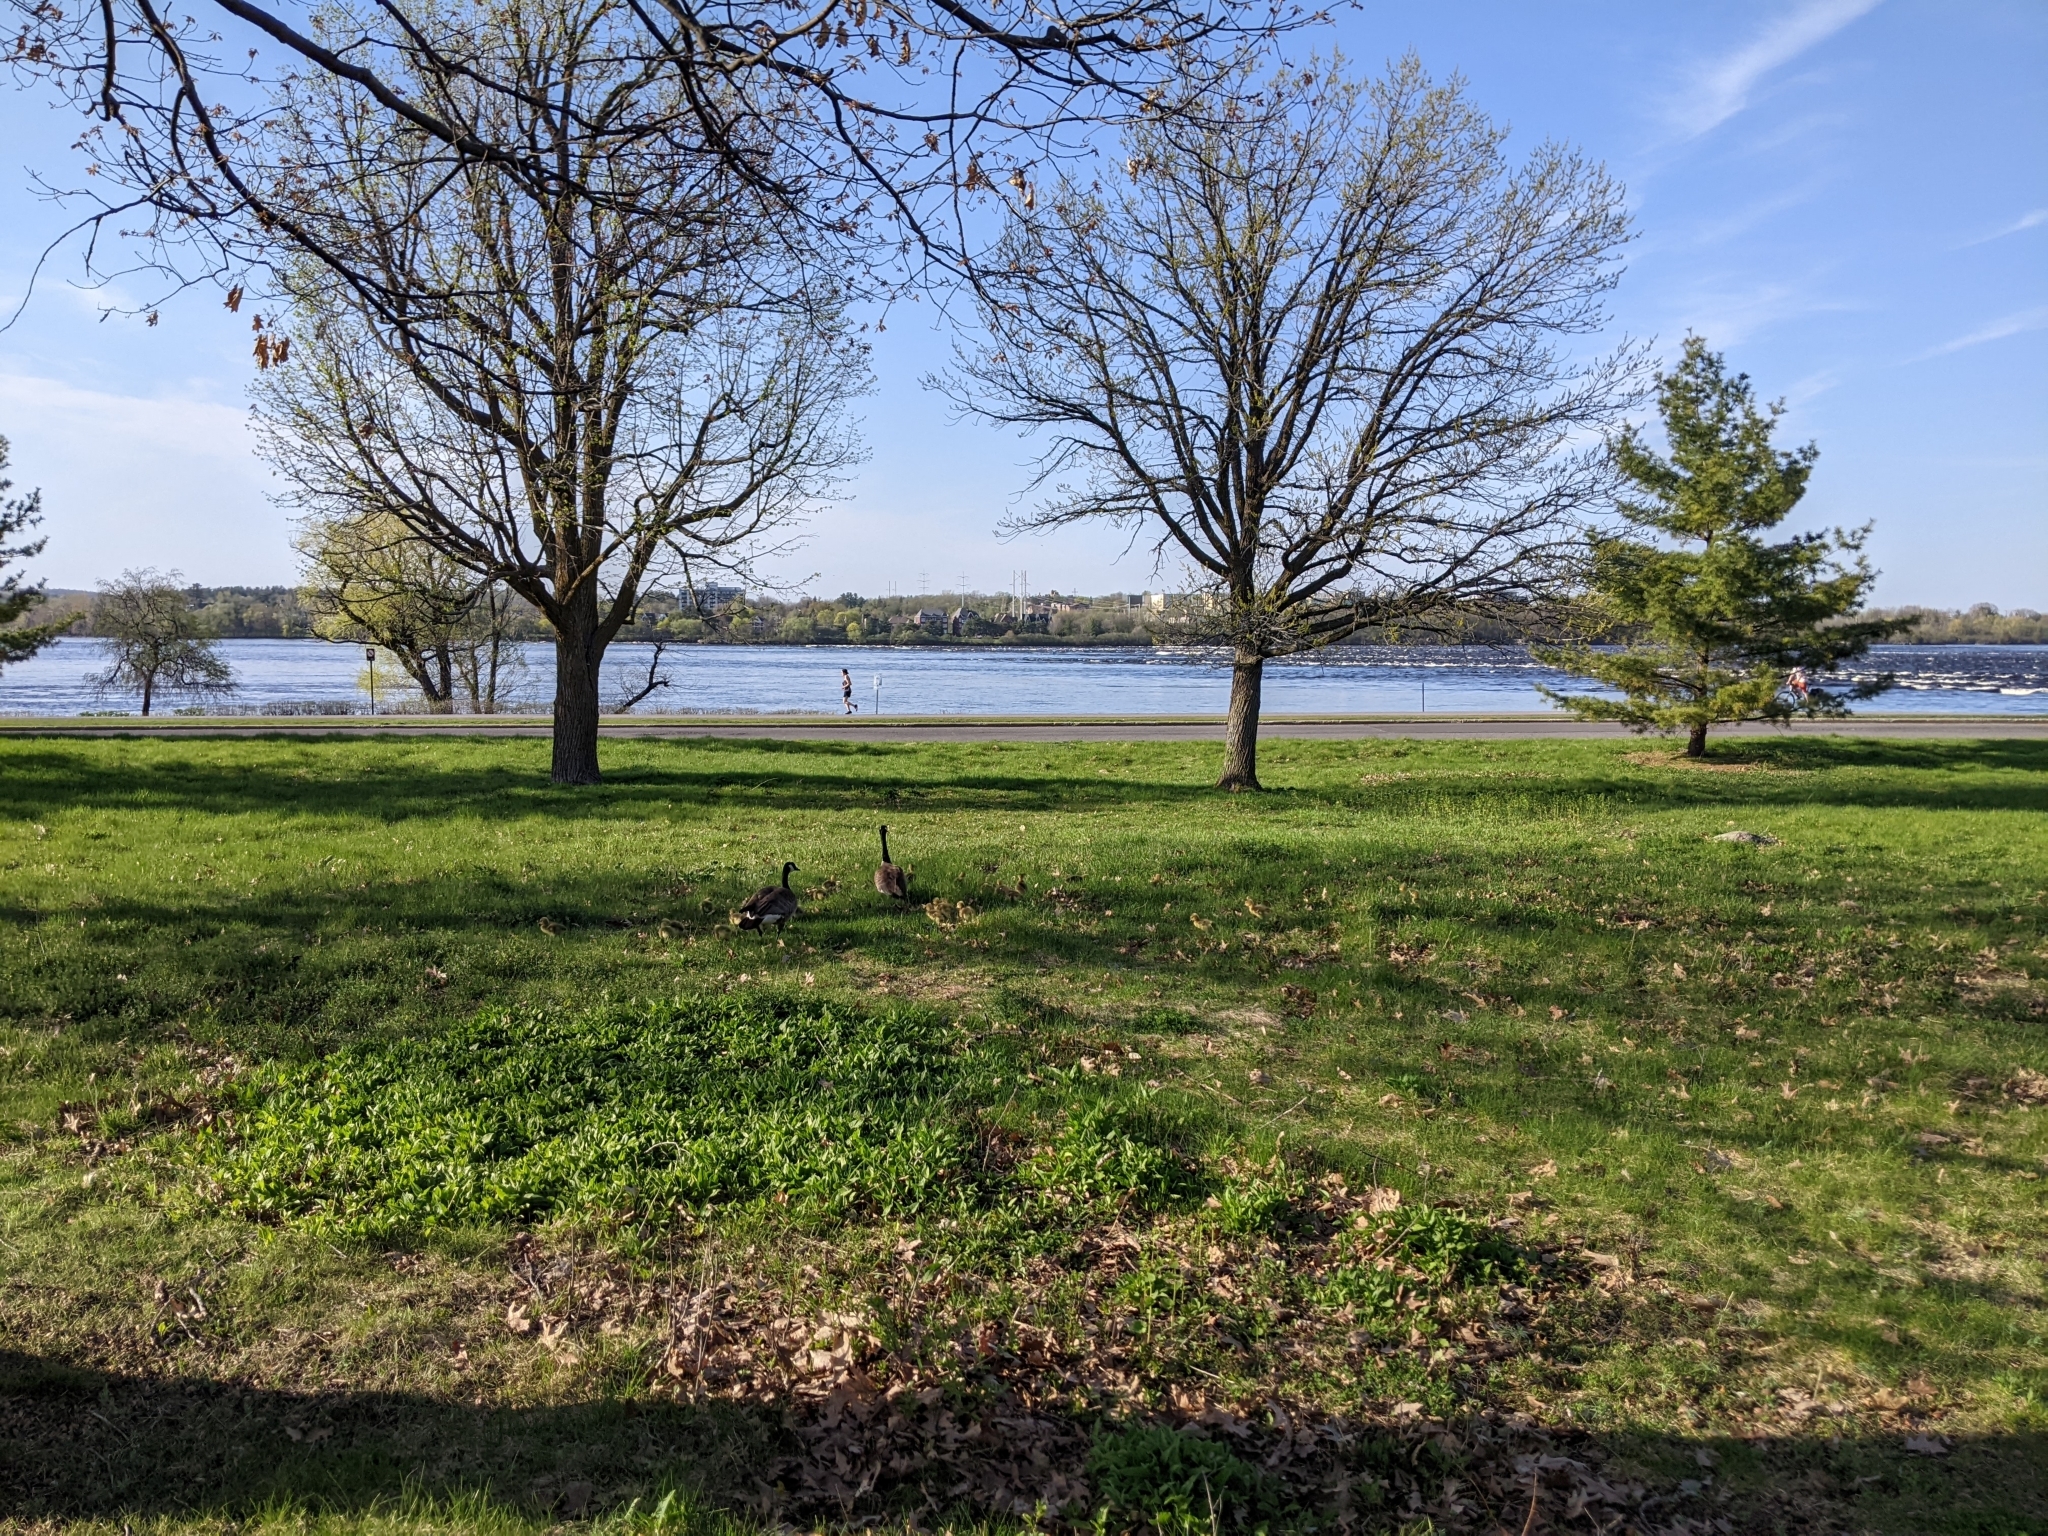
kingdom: Animalia
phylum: Chordata
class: Aves
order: Anseriformes
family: Anatidae
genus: Branta
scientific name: Branta canadensis
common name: Canada goose
